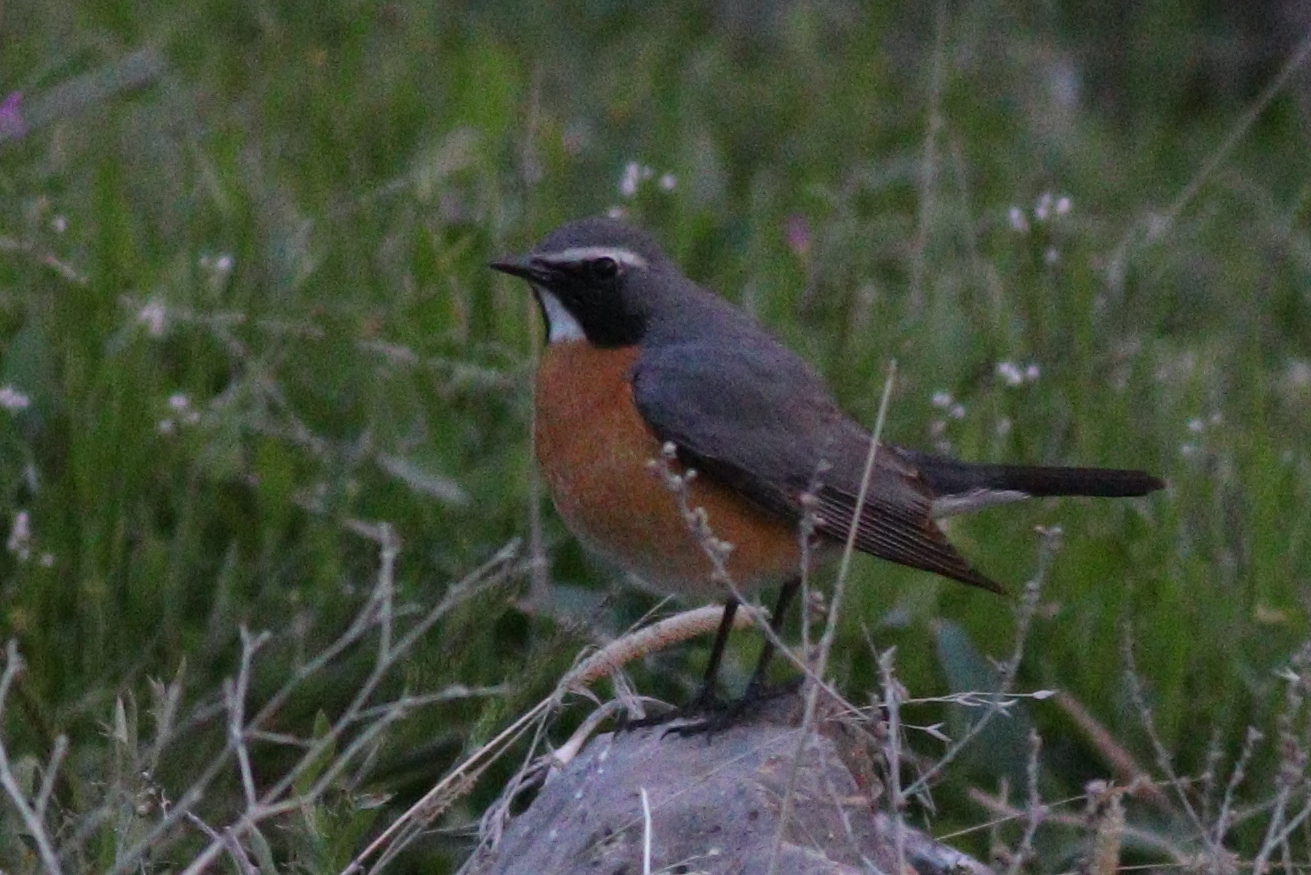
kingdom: Animalia
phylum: Chordata
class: Aves
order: Passeriformes
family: Muscicapidae
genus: Irania
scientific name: Irania gutturalis
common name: White-throated robin
